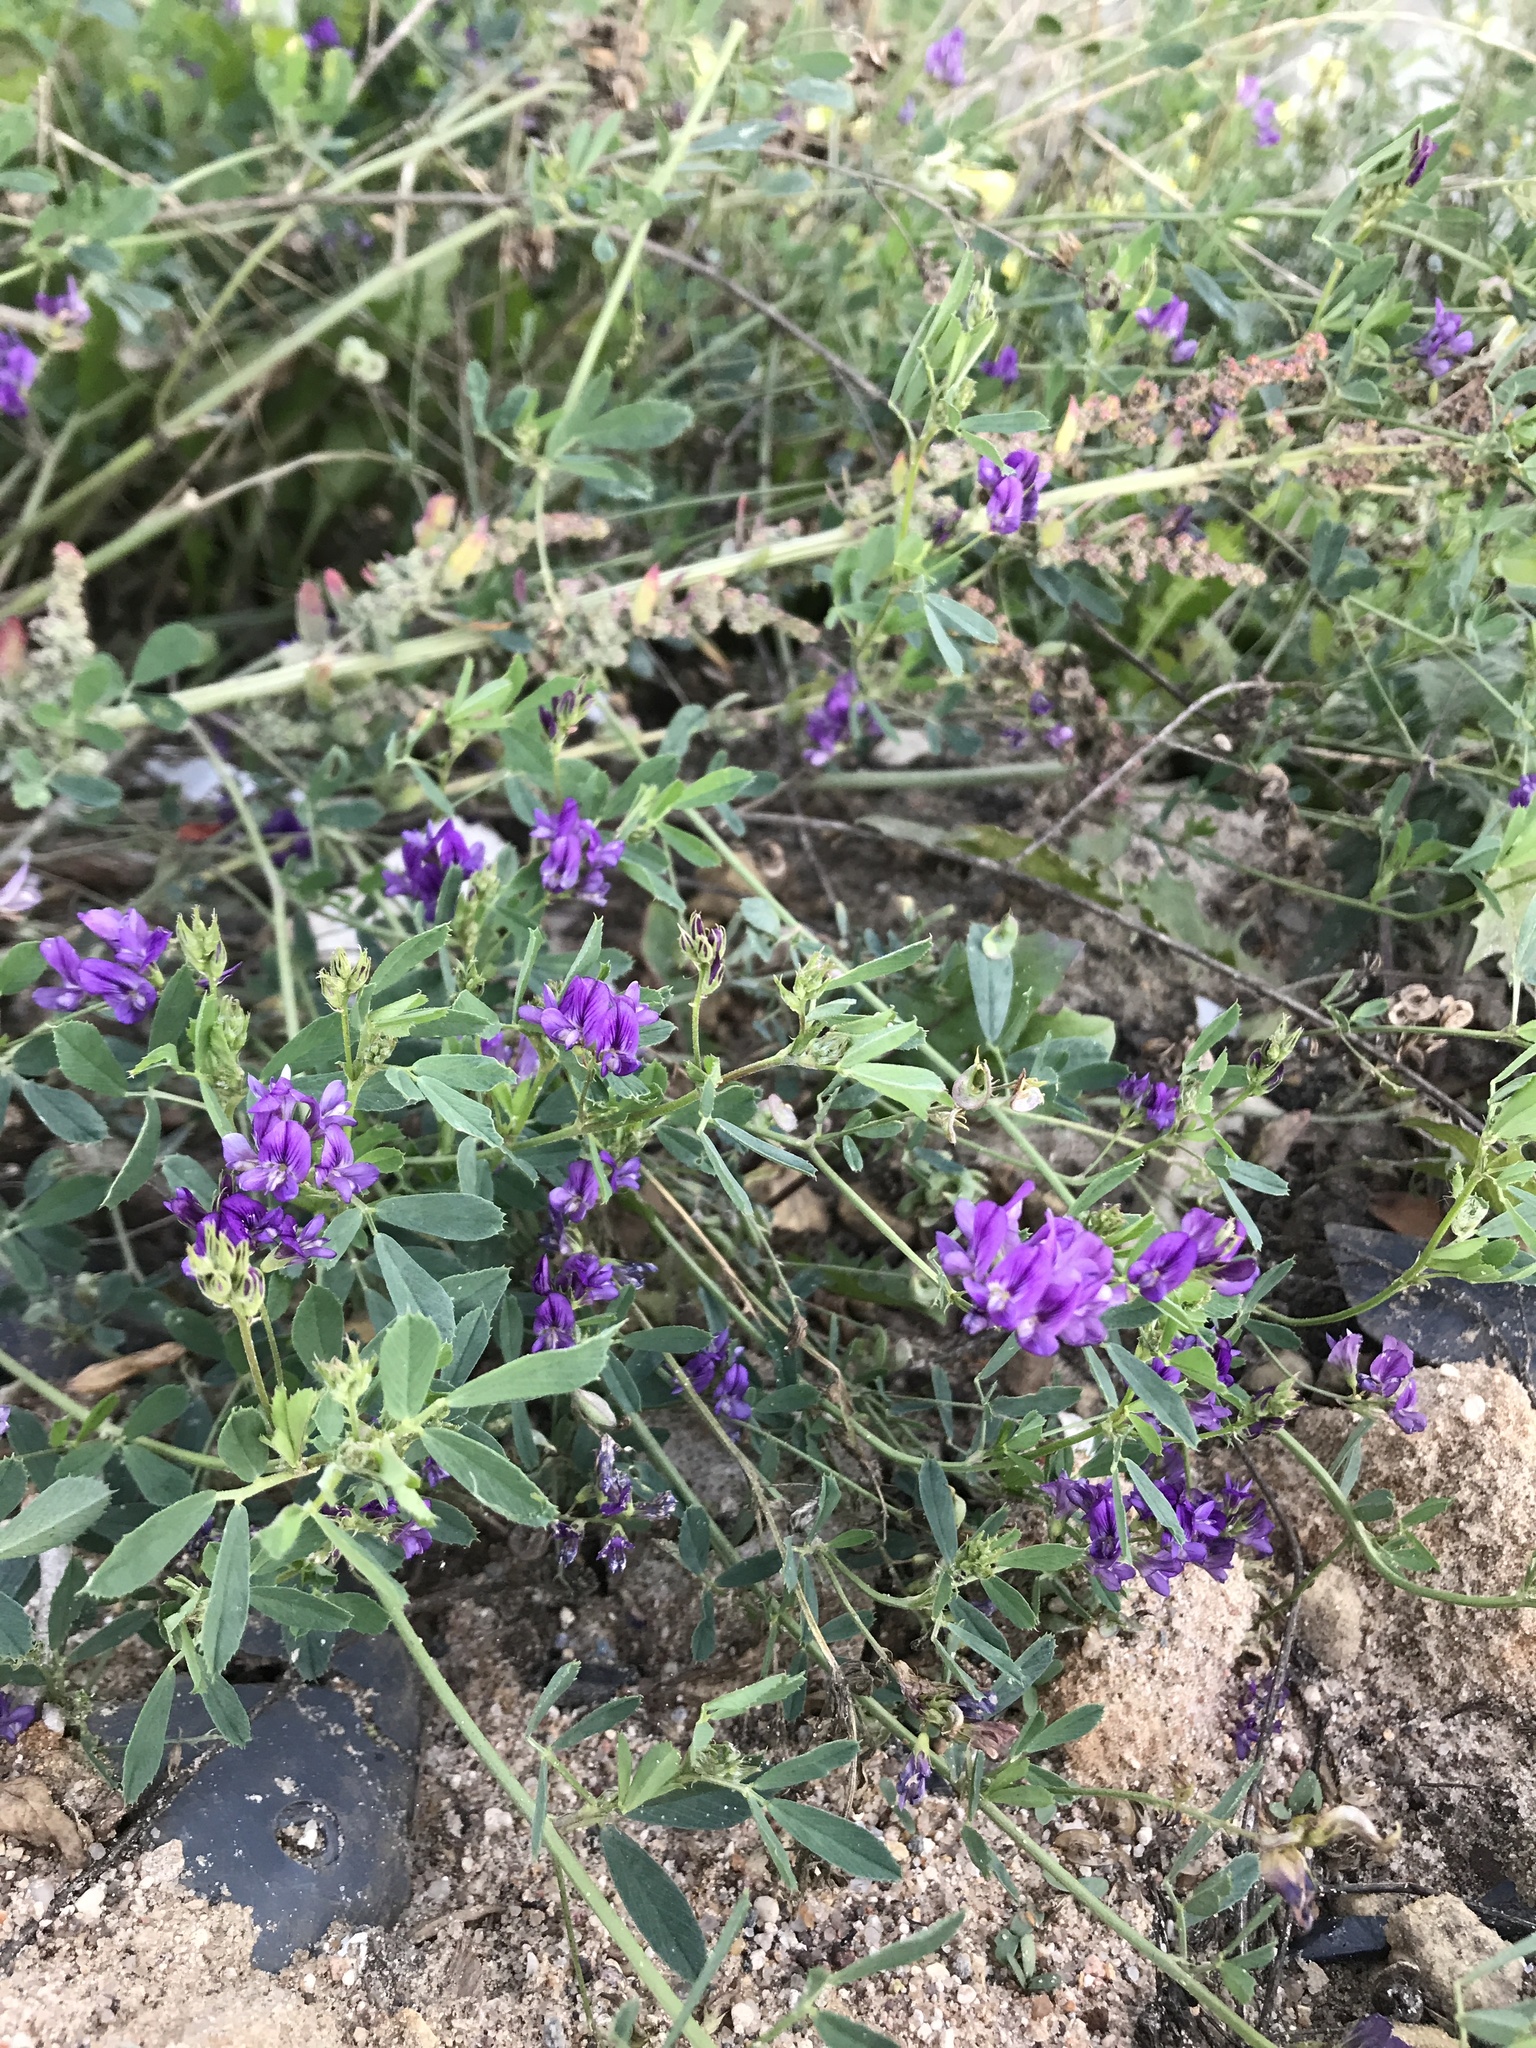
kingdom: Plantae
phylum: Tracheophyta
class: Magnoliopsida
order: Fabales
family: Fabaceae
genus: Medicago
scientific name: Medicago sativa
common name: Alfalfa
